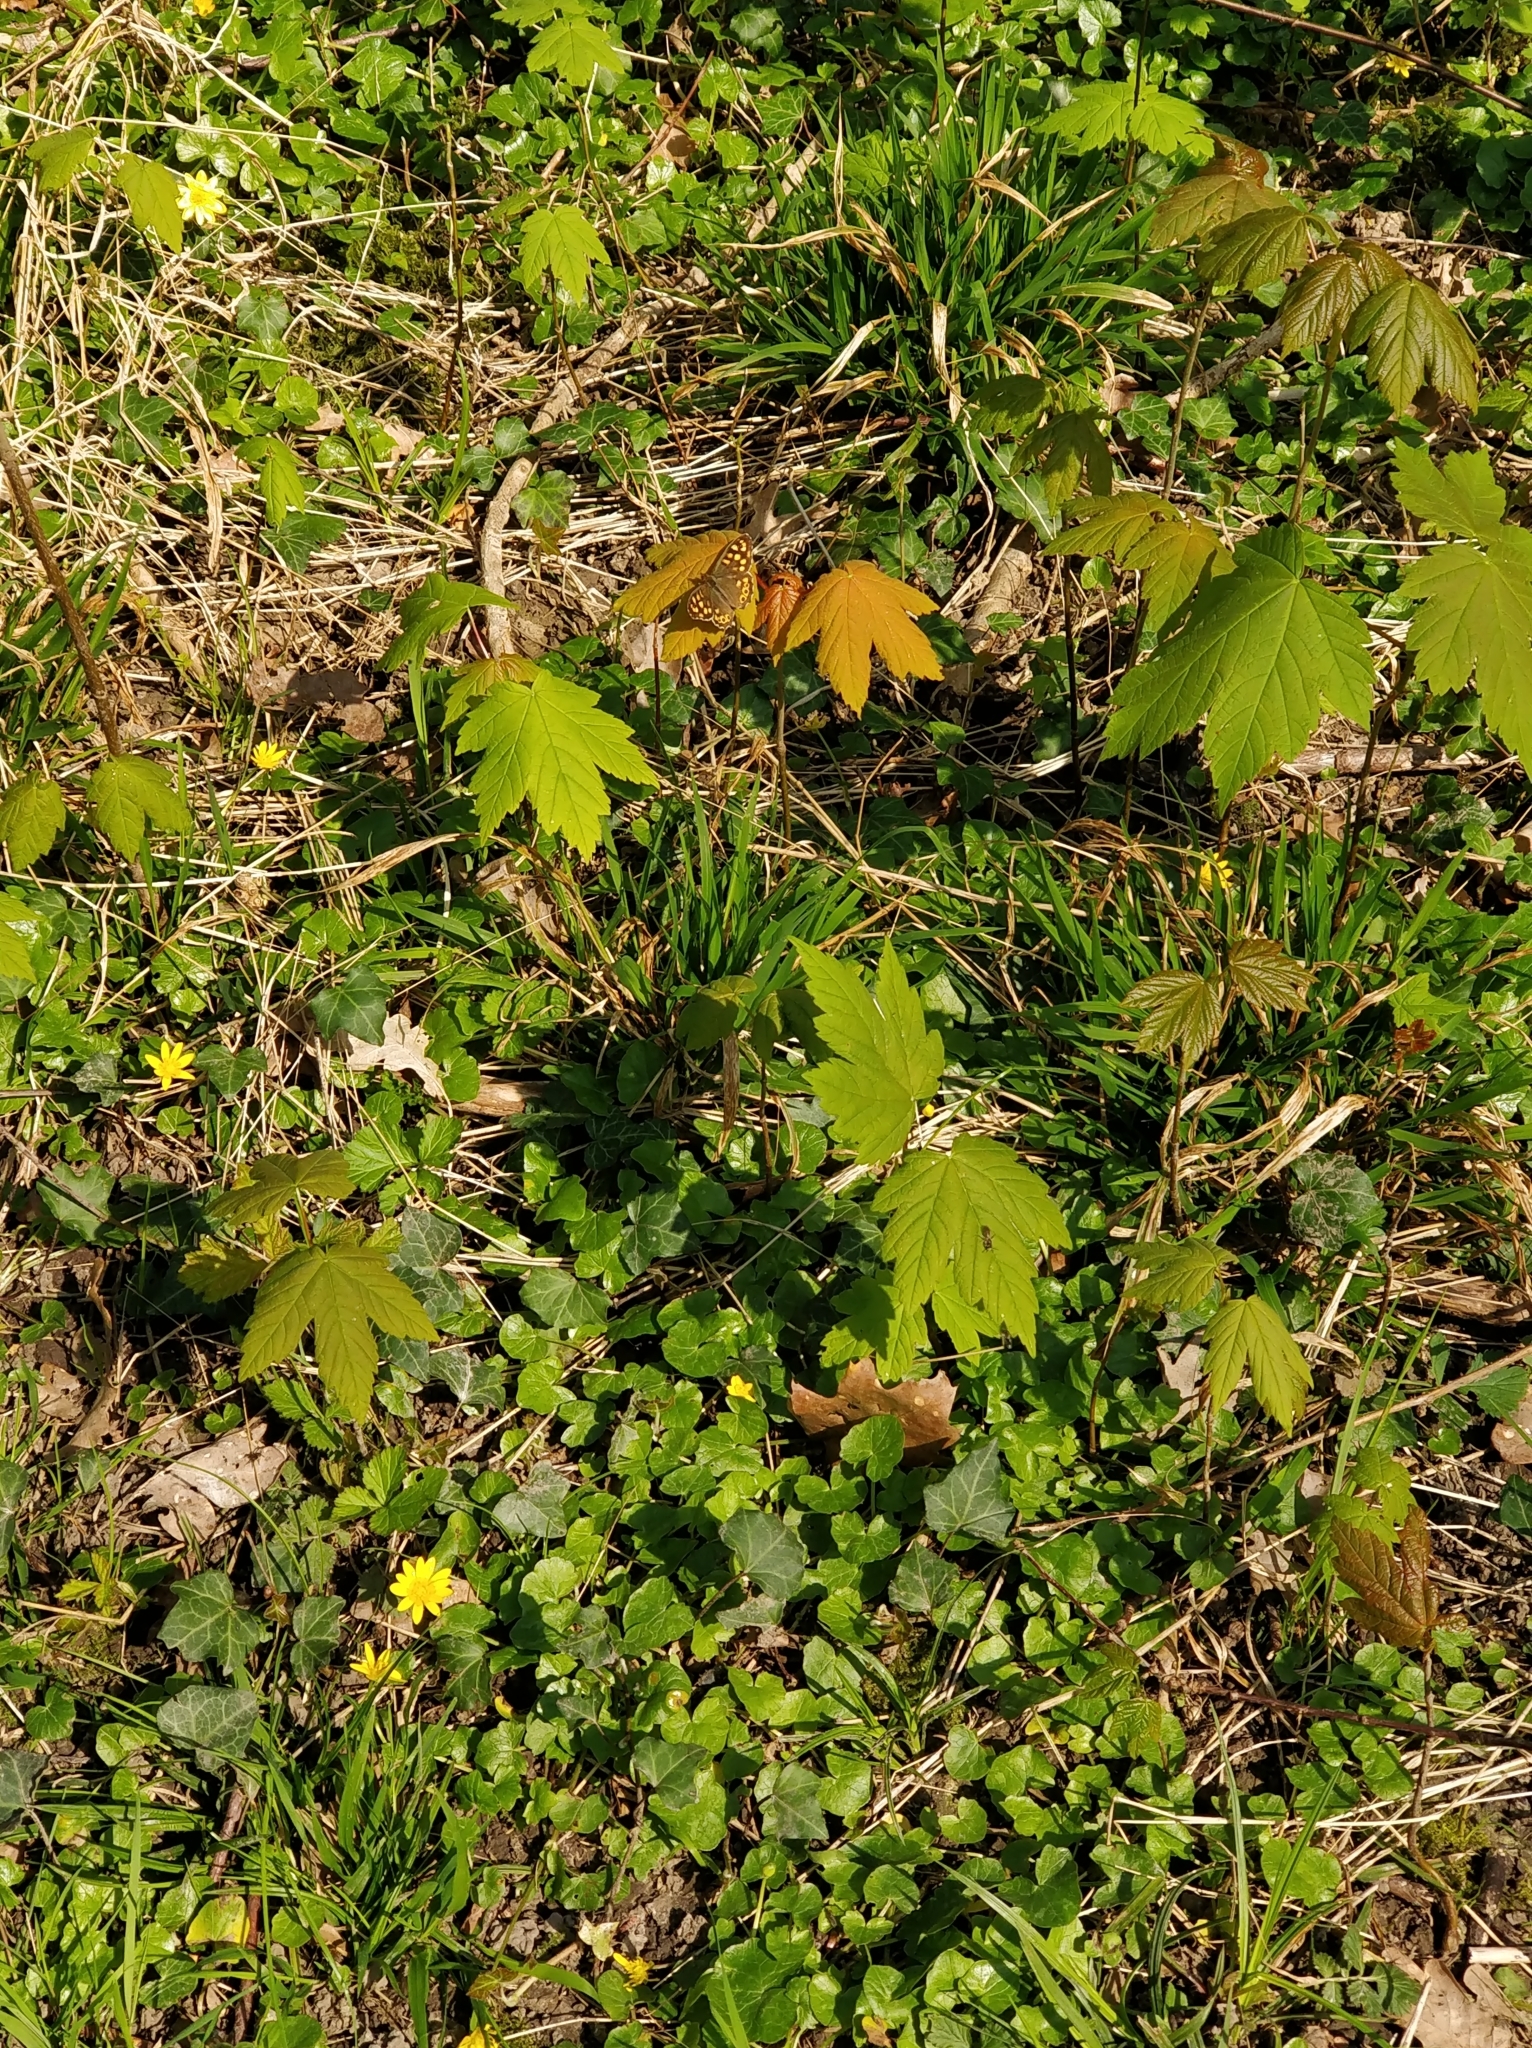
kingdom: Animalia
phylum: Arthropoda
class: Insecta
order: Lepidoptera
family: Nymphalidae
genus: Pararge
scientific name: Pararge aegeria
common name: Speckled wood
